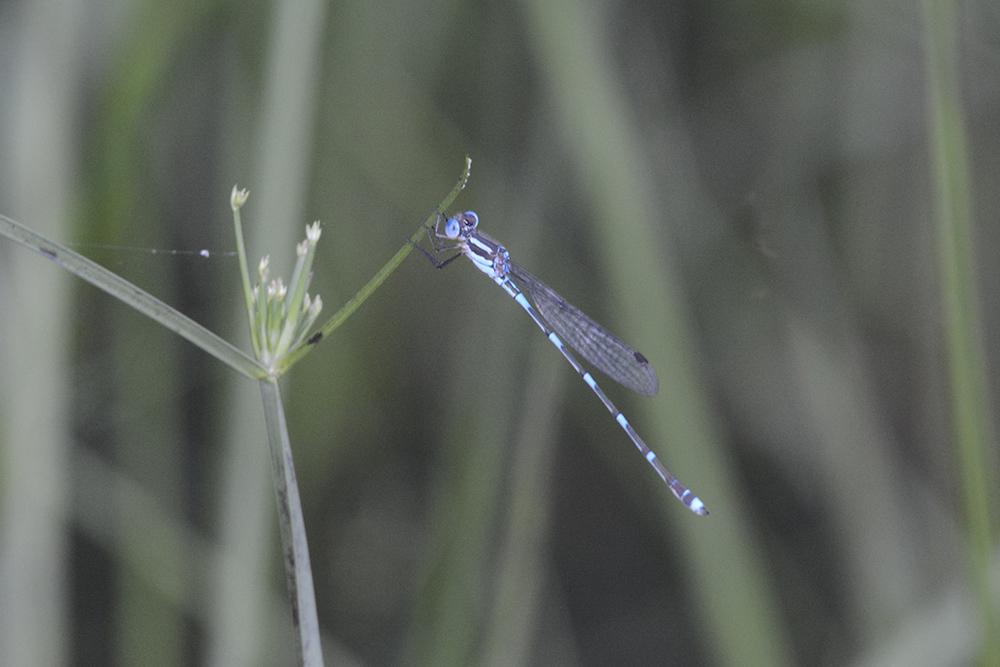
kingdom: Animalia
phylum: Arthropoda
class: Insecta
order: Odonata
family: Lestidae
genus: Austrolestes
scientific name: Austrolestes leda
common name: Wandering ringtail
